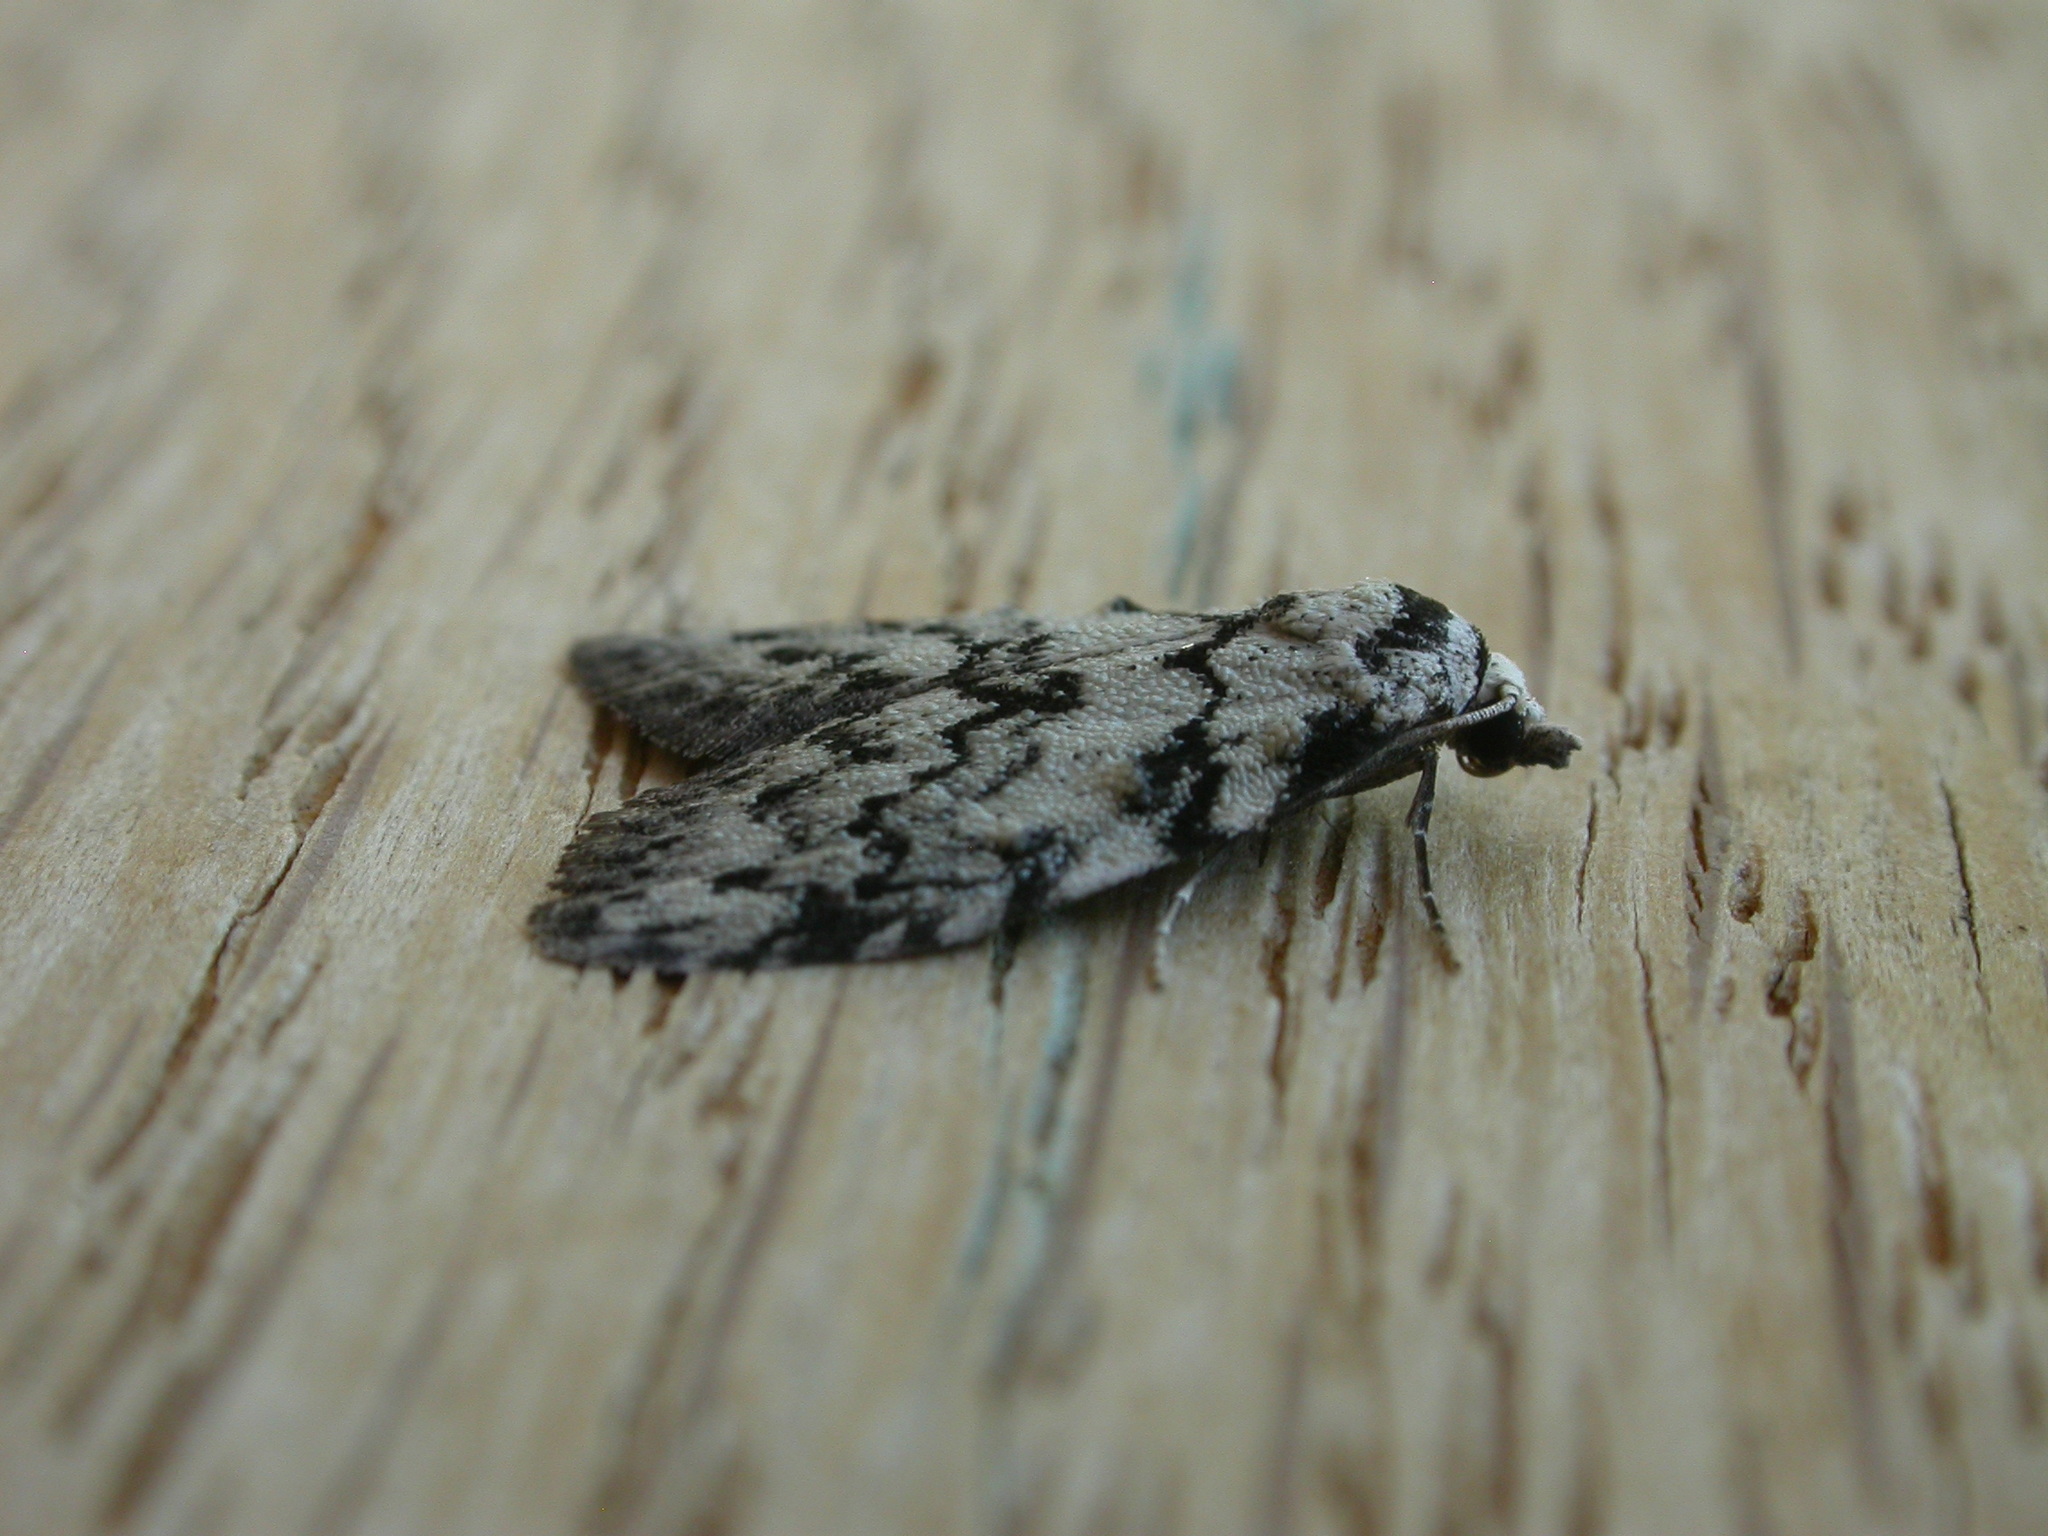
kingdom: Animalia
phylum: Arthropoda
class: Insecta
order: Lepidoptera
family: Nolidae
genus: Nola
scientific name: Nola melanogramma
